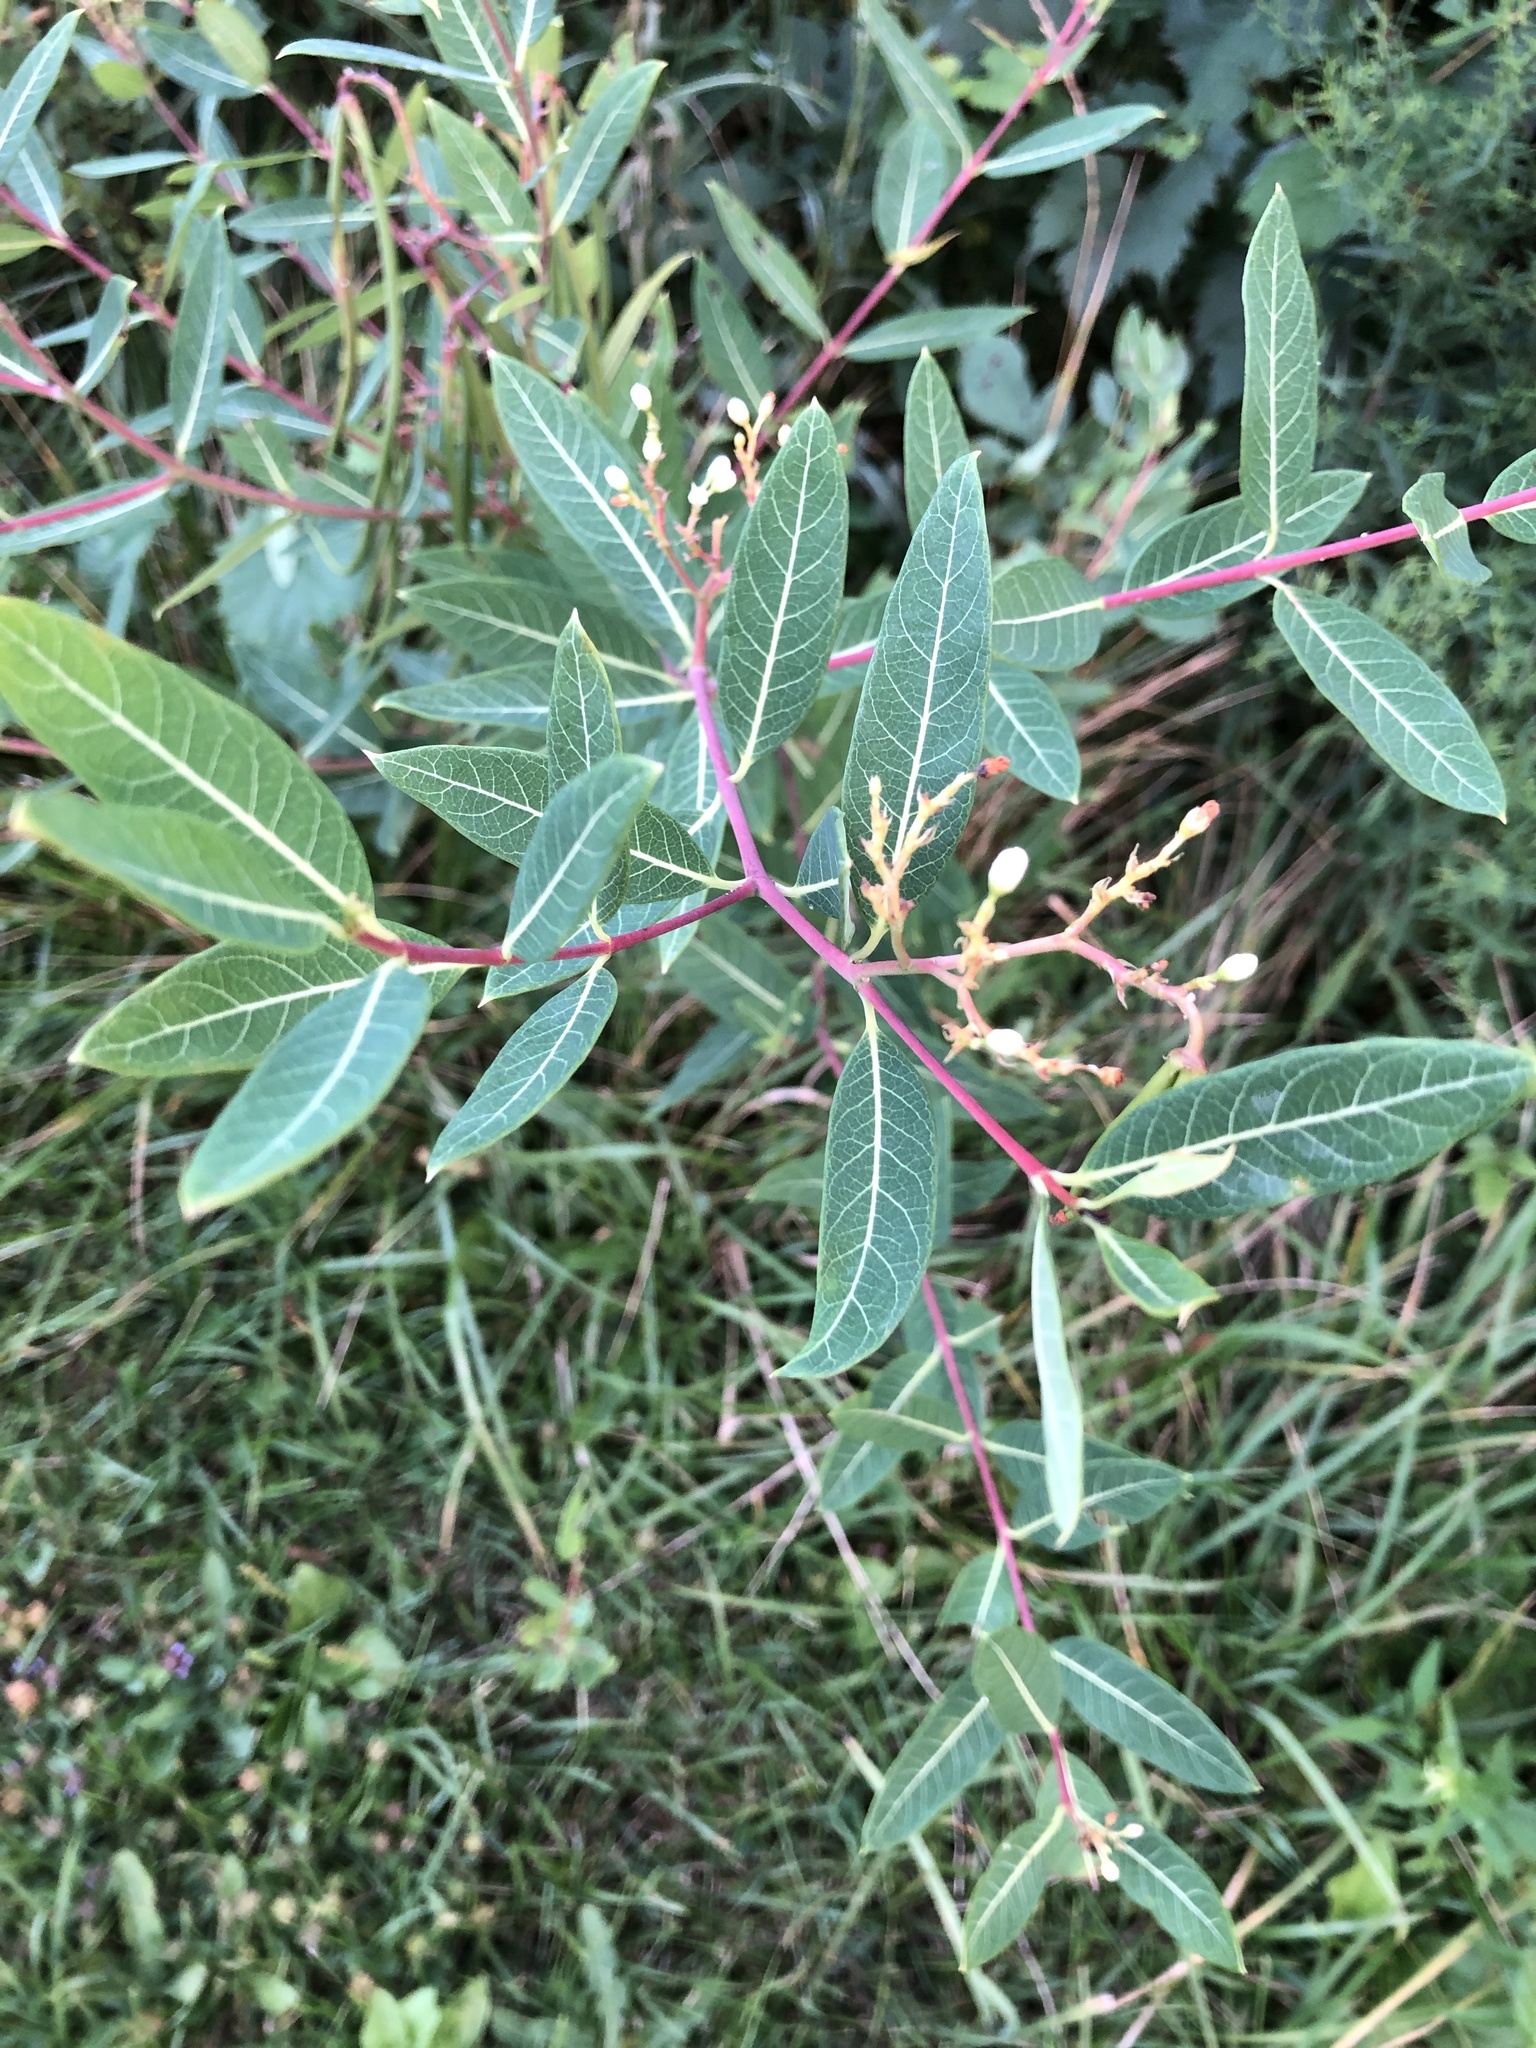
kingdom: Plantae
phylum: Tracheophyta
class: Magnoliopsida
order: Gentianales
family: Apocynaceae
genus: Apocynum
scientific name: Apocynum cannabinum
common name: Hemp dogbane
